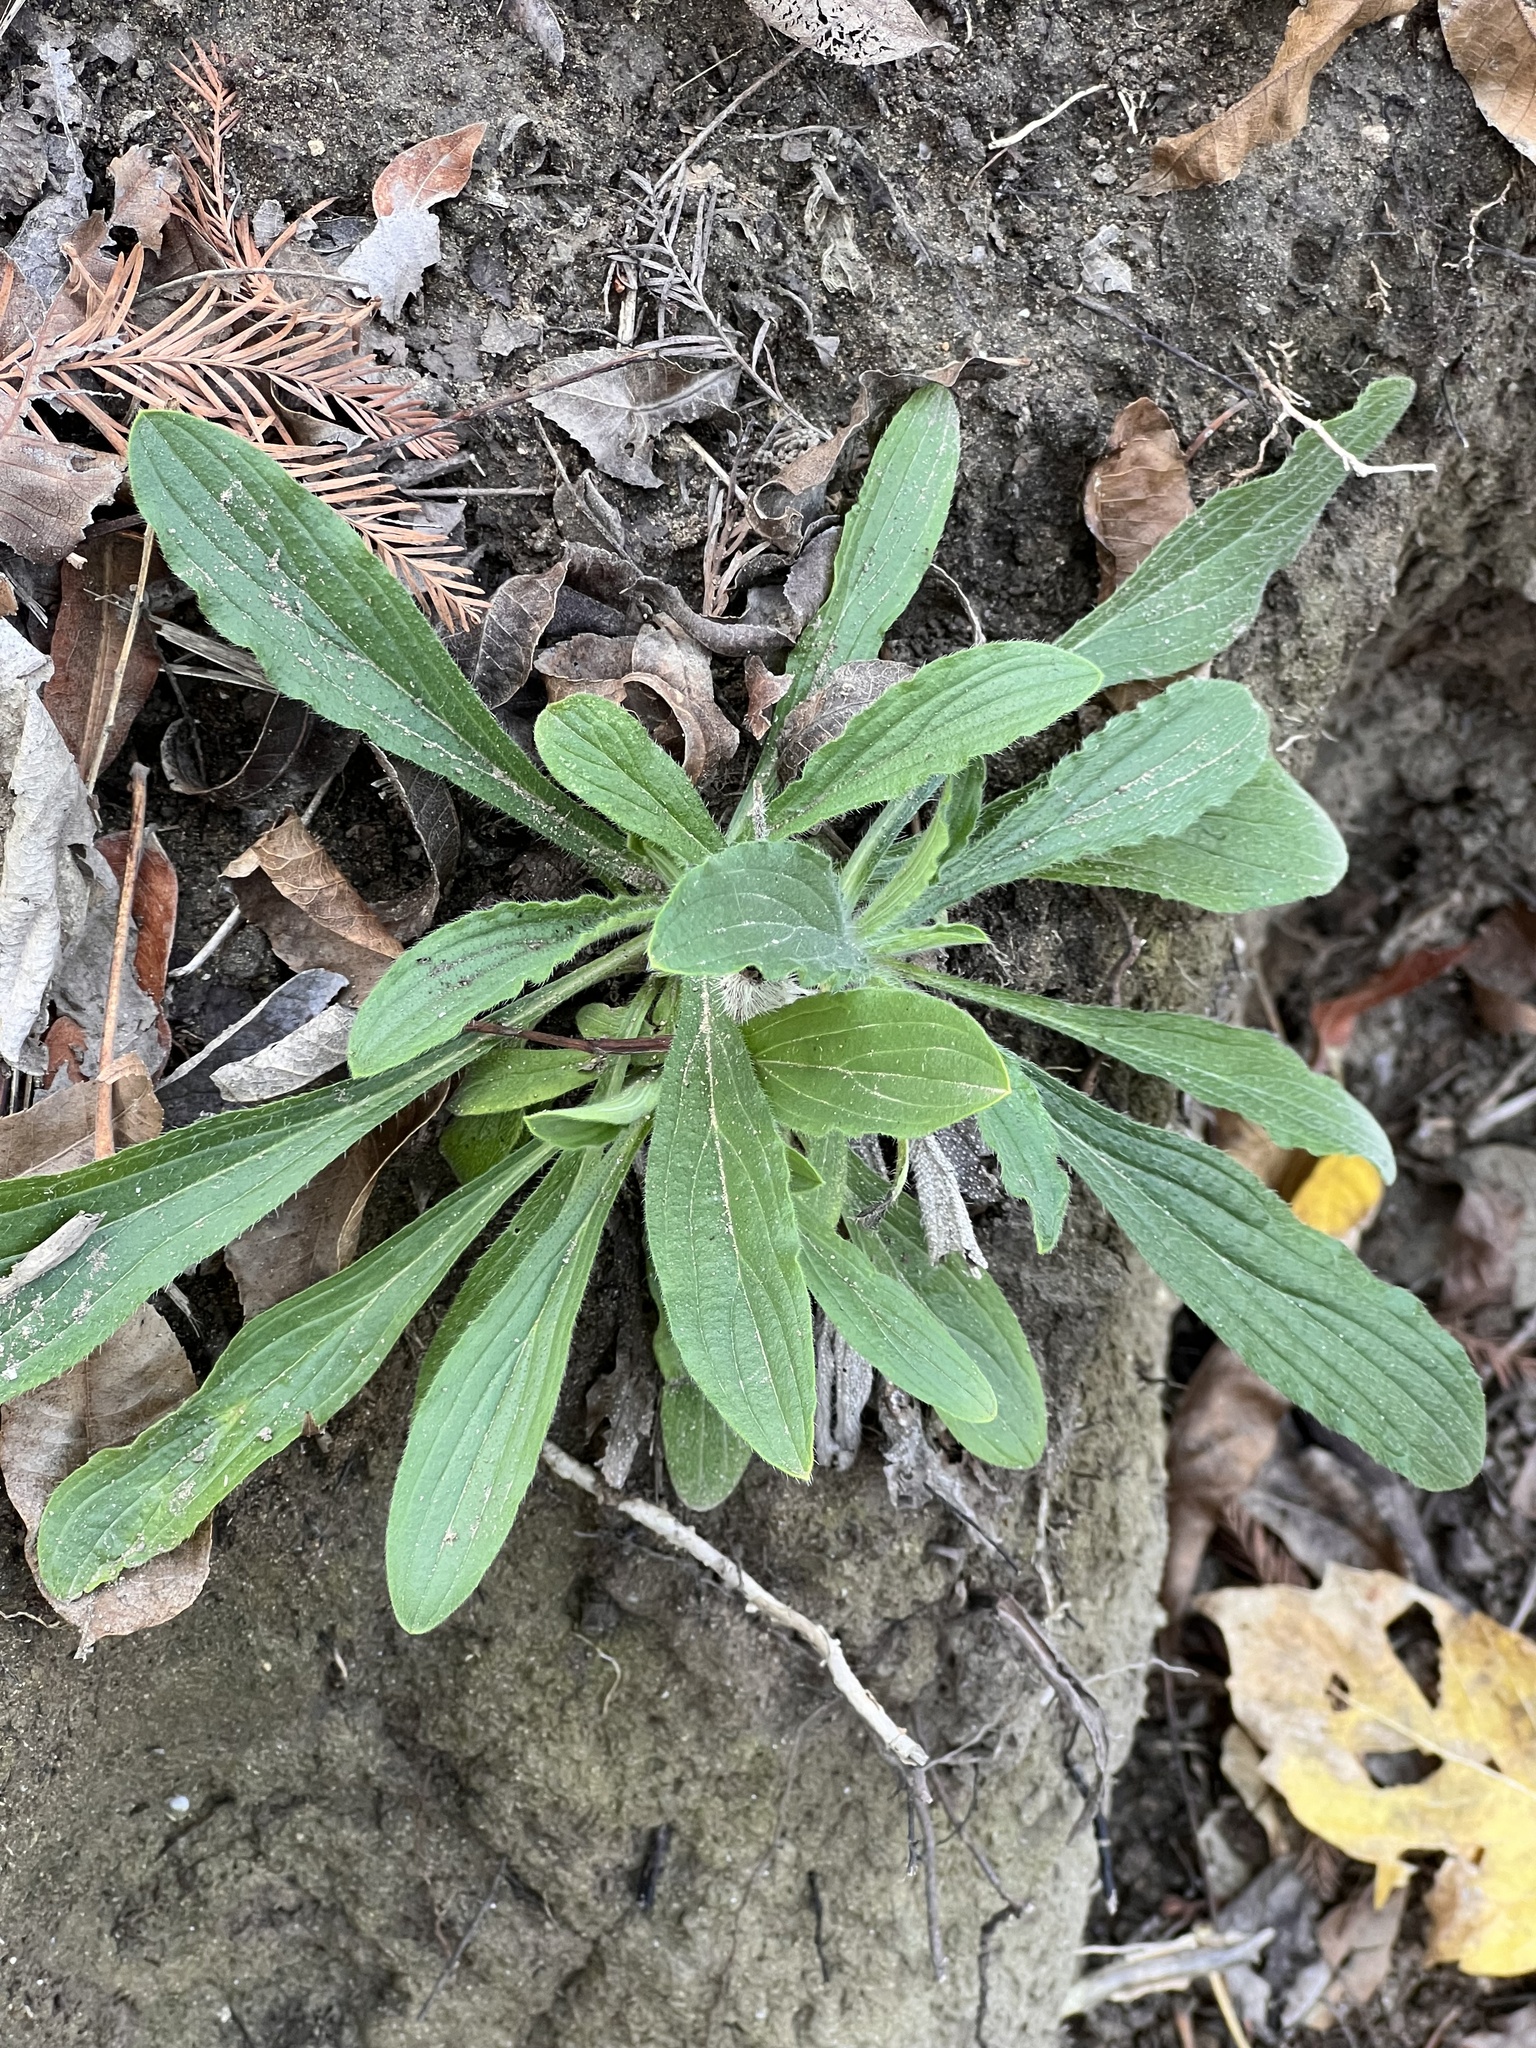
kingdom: Plantae
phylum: Tracheophyta
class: Magnoliopsida
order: Boraginales
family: Boraginaceae
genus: Lithospermum
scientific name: Lithospermum caroliniense
